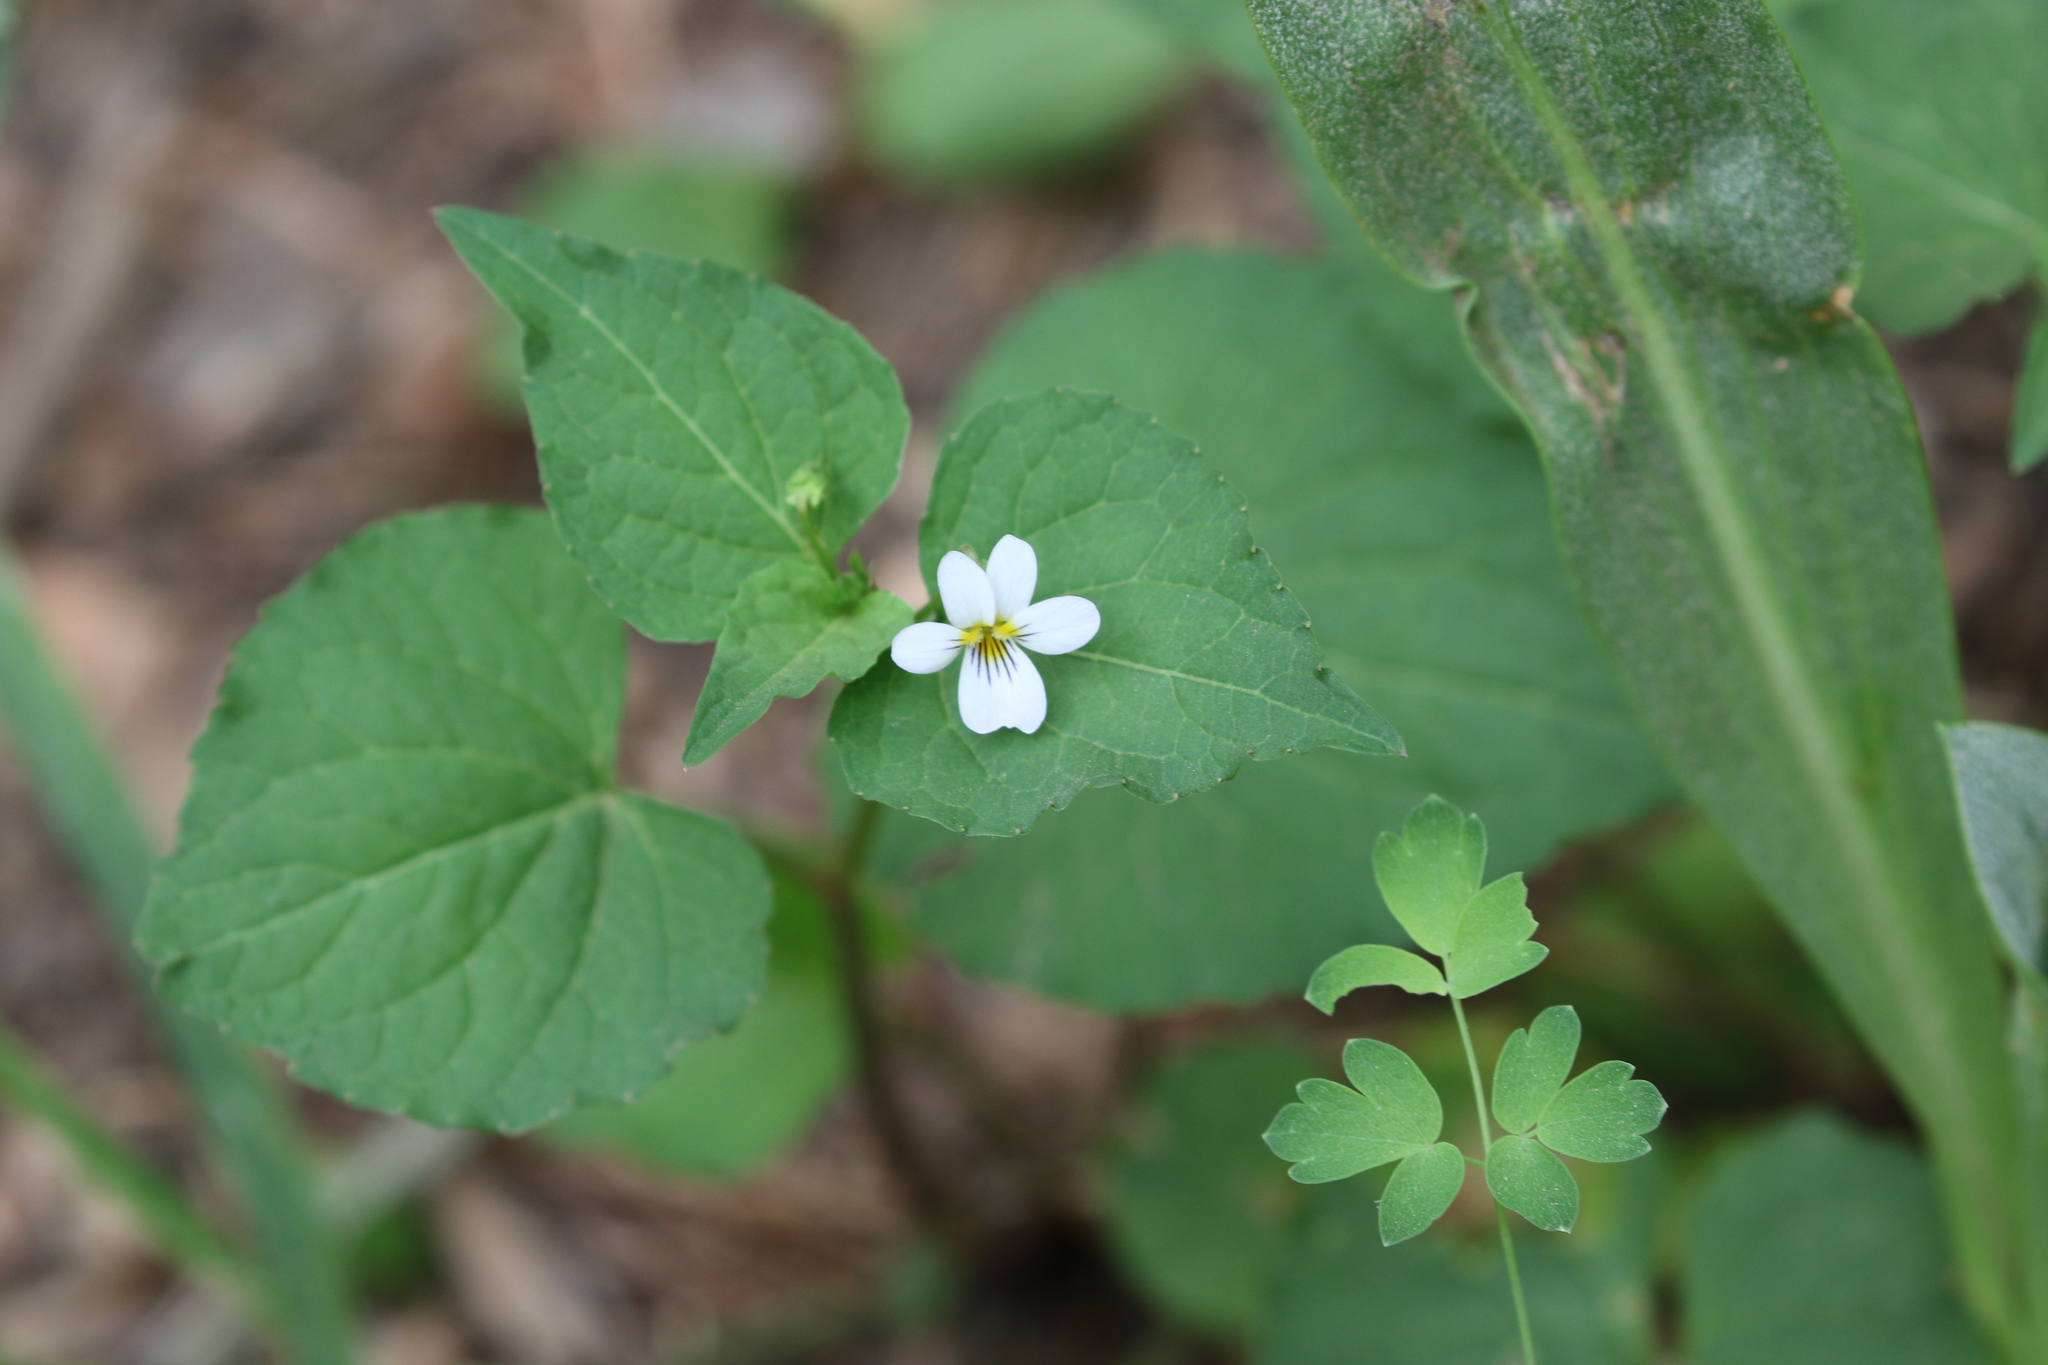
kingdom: Plantae
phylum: Tracheophyta
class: Magnoliopsida
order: Malpighiales
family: Violaceae
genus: Viola
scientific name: Viola canadensis
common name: Canada violet
